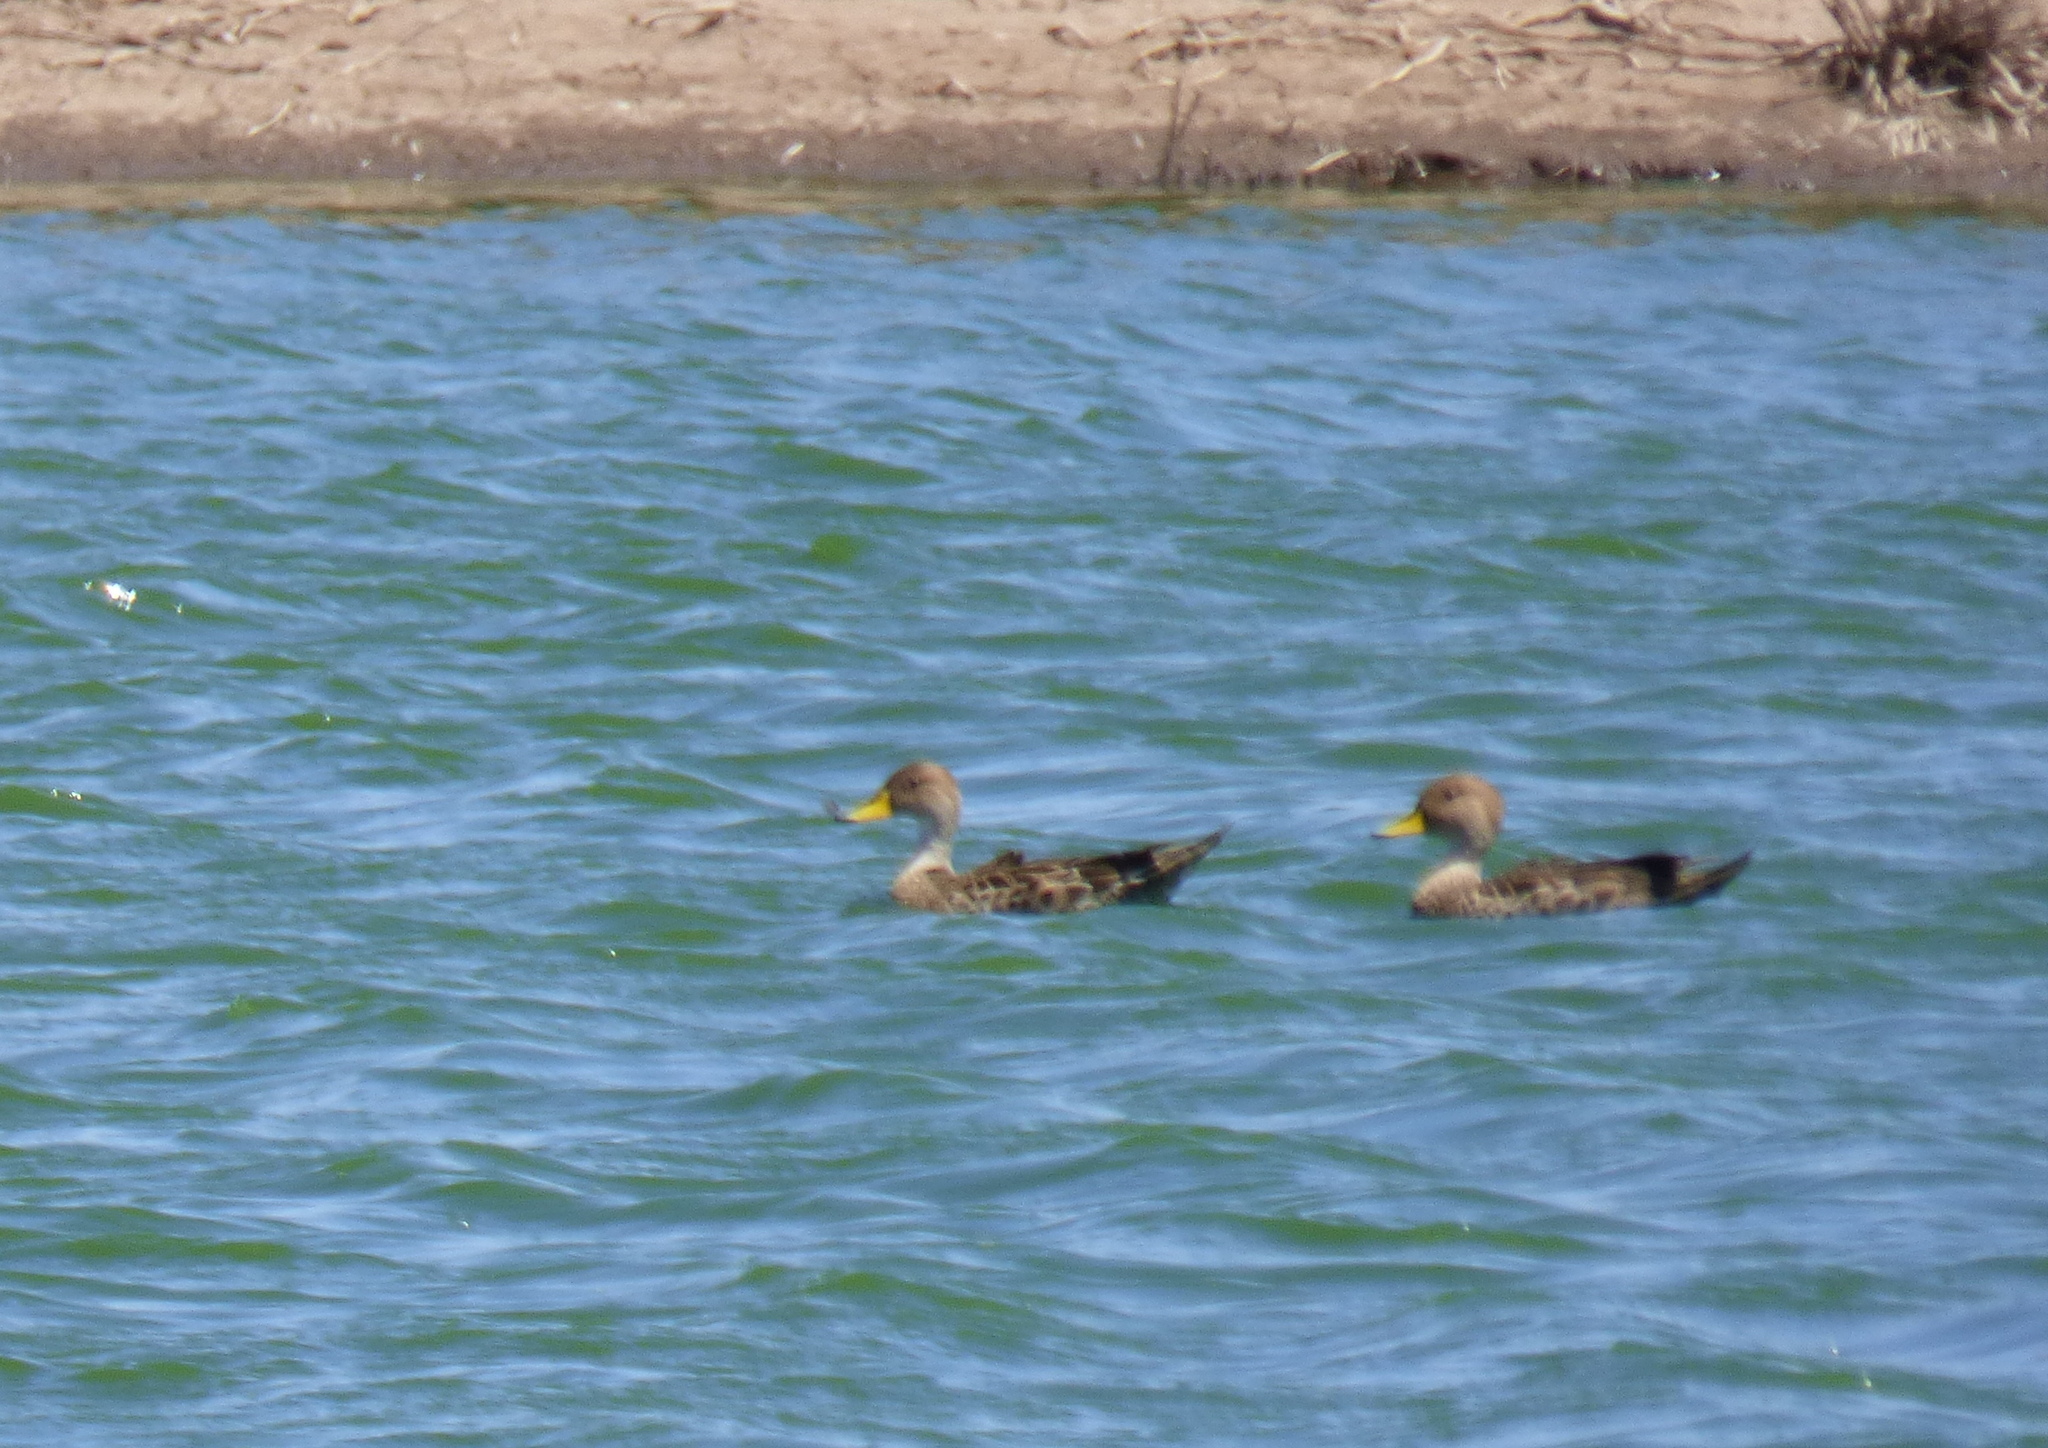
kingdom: Animalia
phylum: Chordata
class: Aves
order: Anseriformes
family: Anatidae
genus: Anas
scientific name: Anas georgica
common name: Yellow-billed pintail
